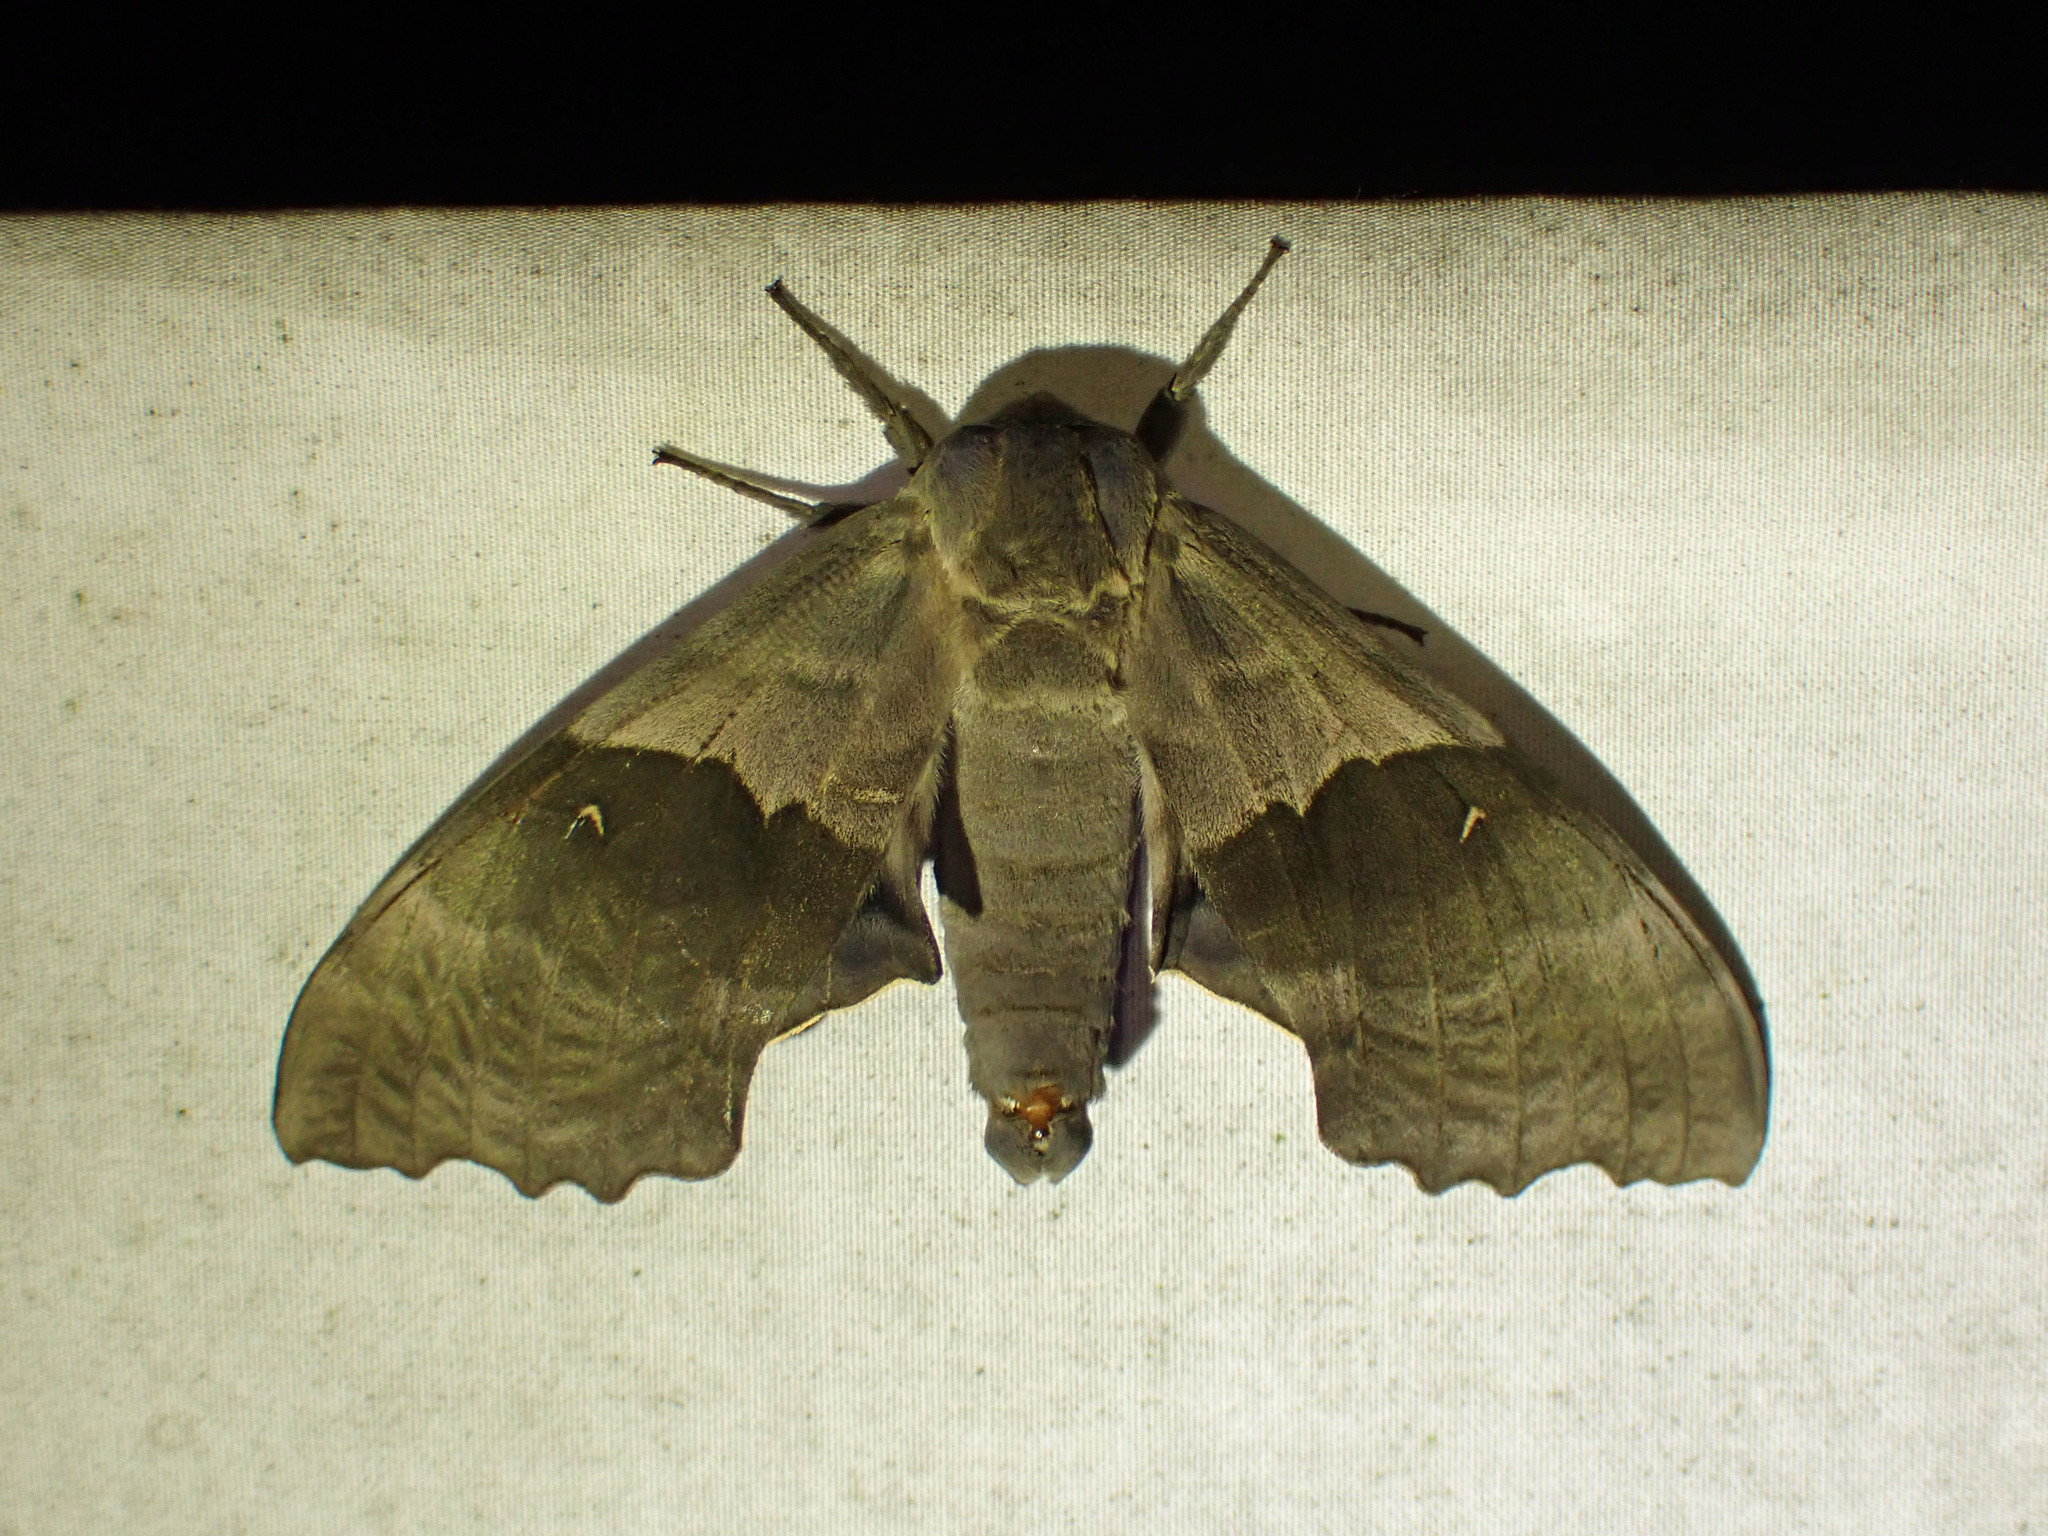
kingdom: Animalia
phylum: Arthropoda
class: Insecta
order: Lepidoptera
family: Sphingidae
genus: Pachysphinx
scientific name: Pachysphinx modesta
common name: Big poplar sphinx
